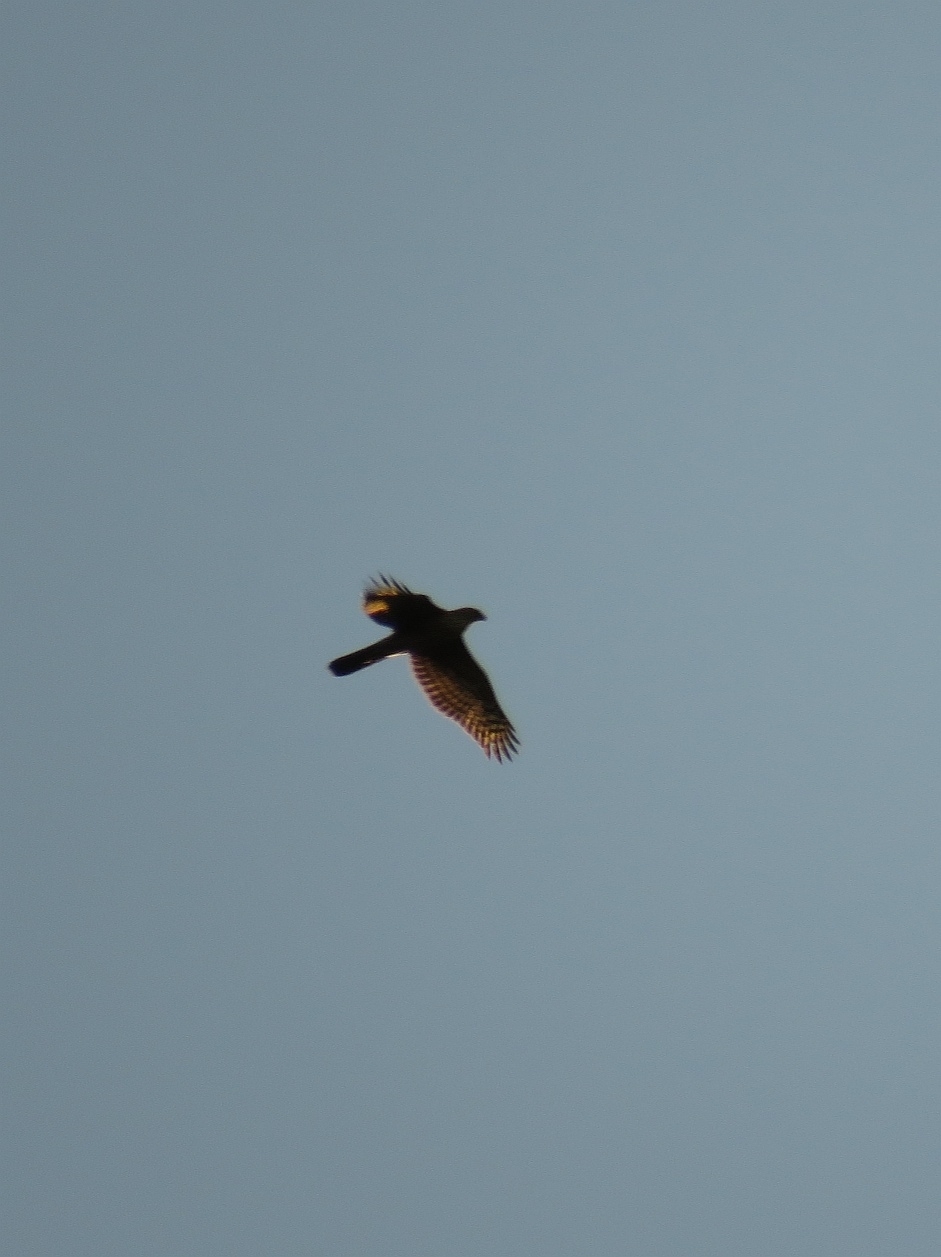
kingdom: Animalia
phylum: Chordata
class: Aves
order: Accipitriformes
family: Accipitridae
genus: Accipiter
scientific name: Accipiter melanoleucus
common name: Black sparrowhawk
